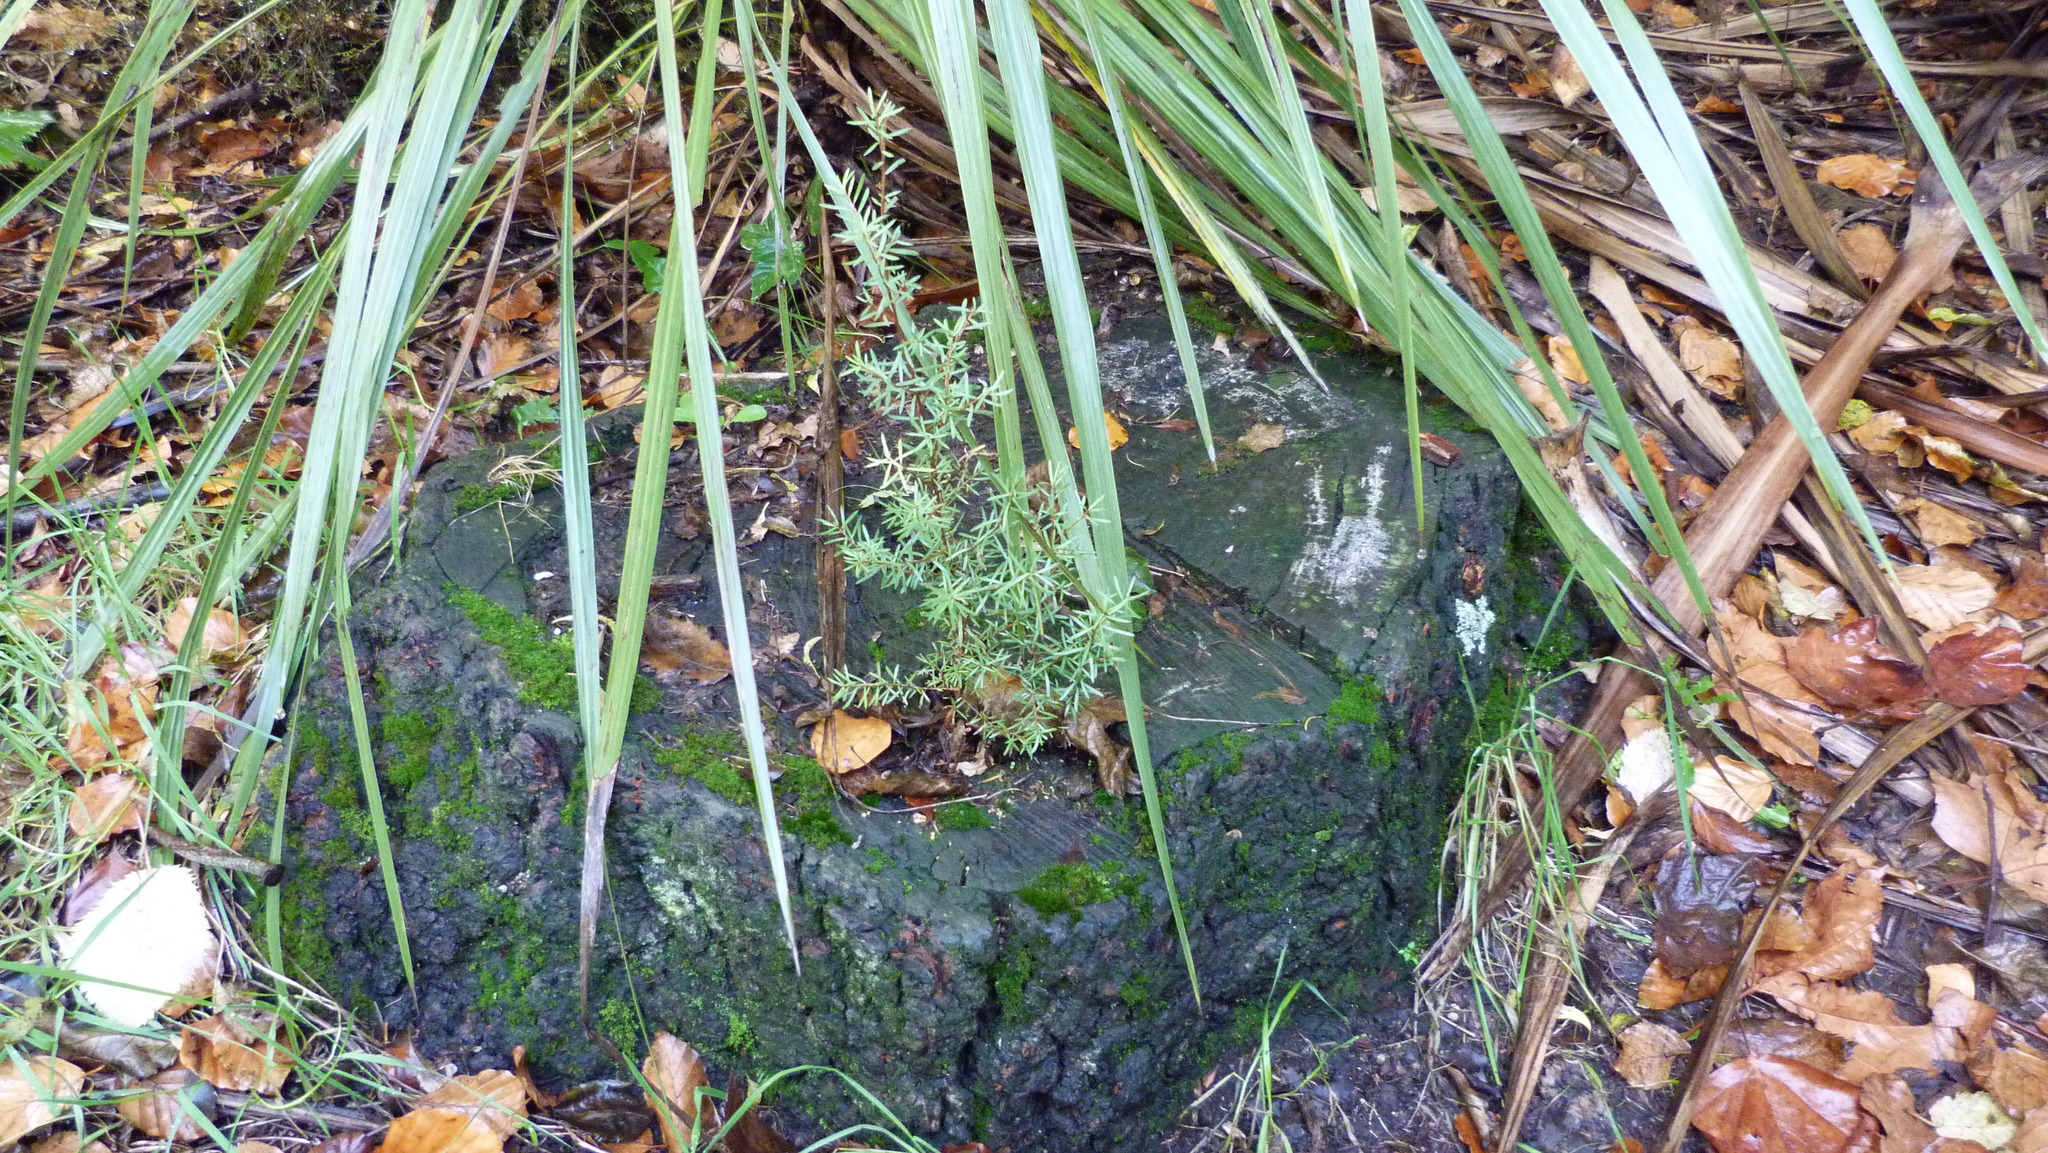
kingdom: Plantae
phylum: Tracheophyta
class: Magnoliopsida
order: Myrtales
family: Myrtaceae
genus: Kunzea
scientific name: Kunzea robusta
